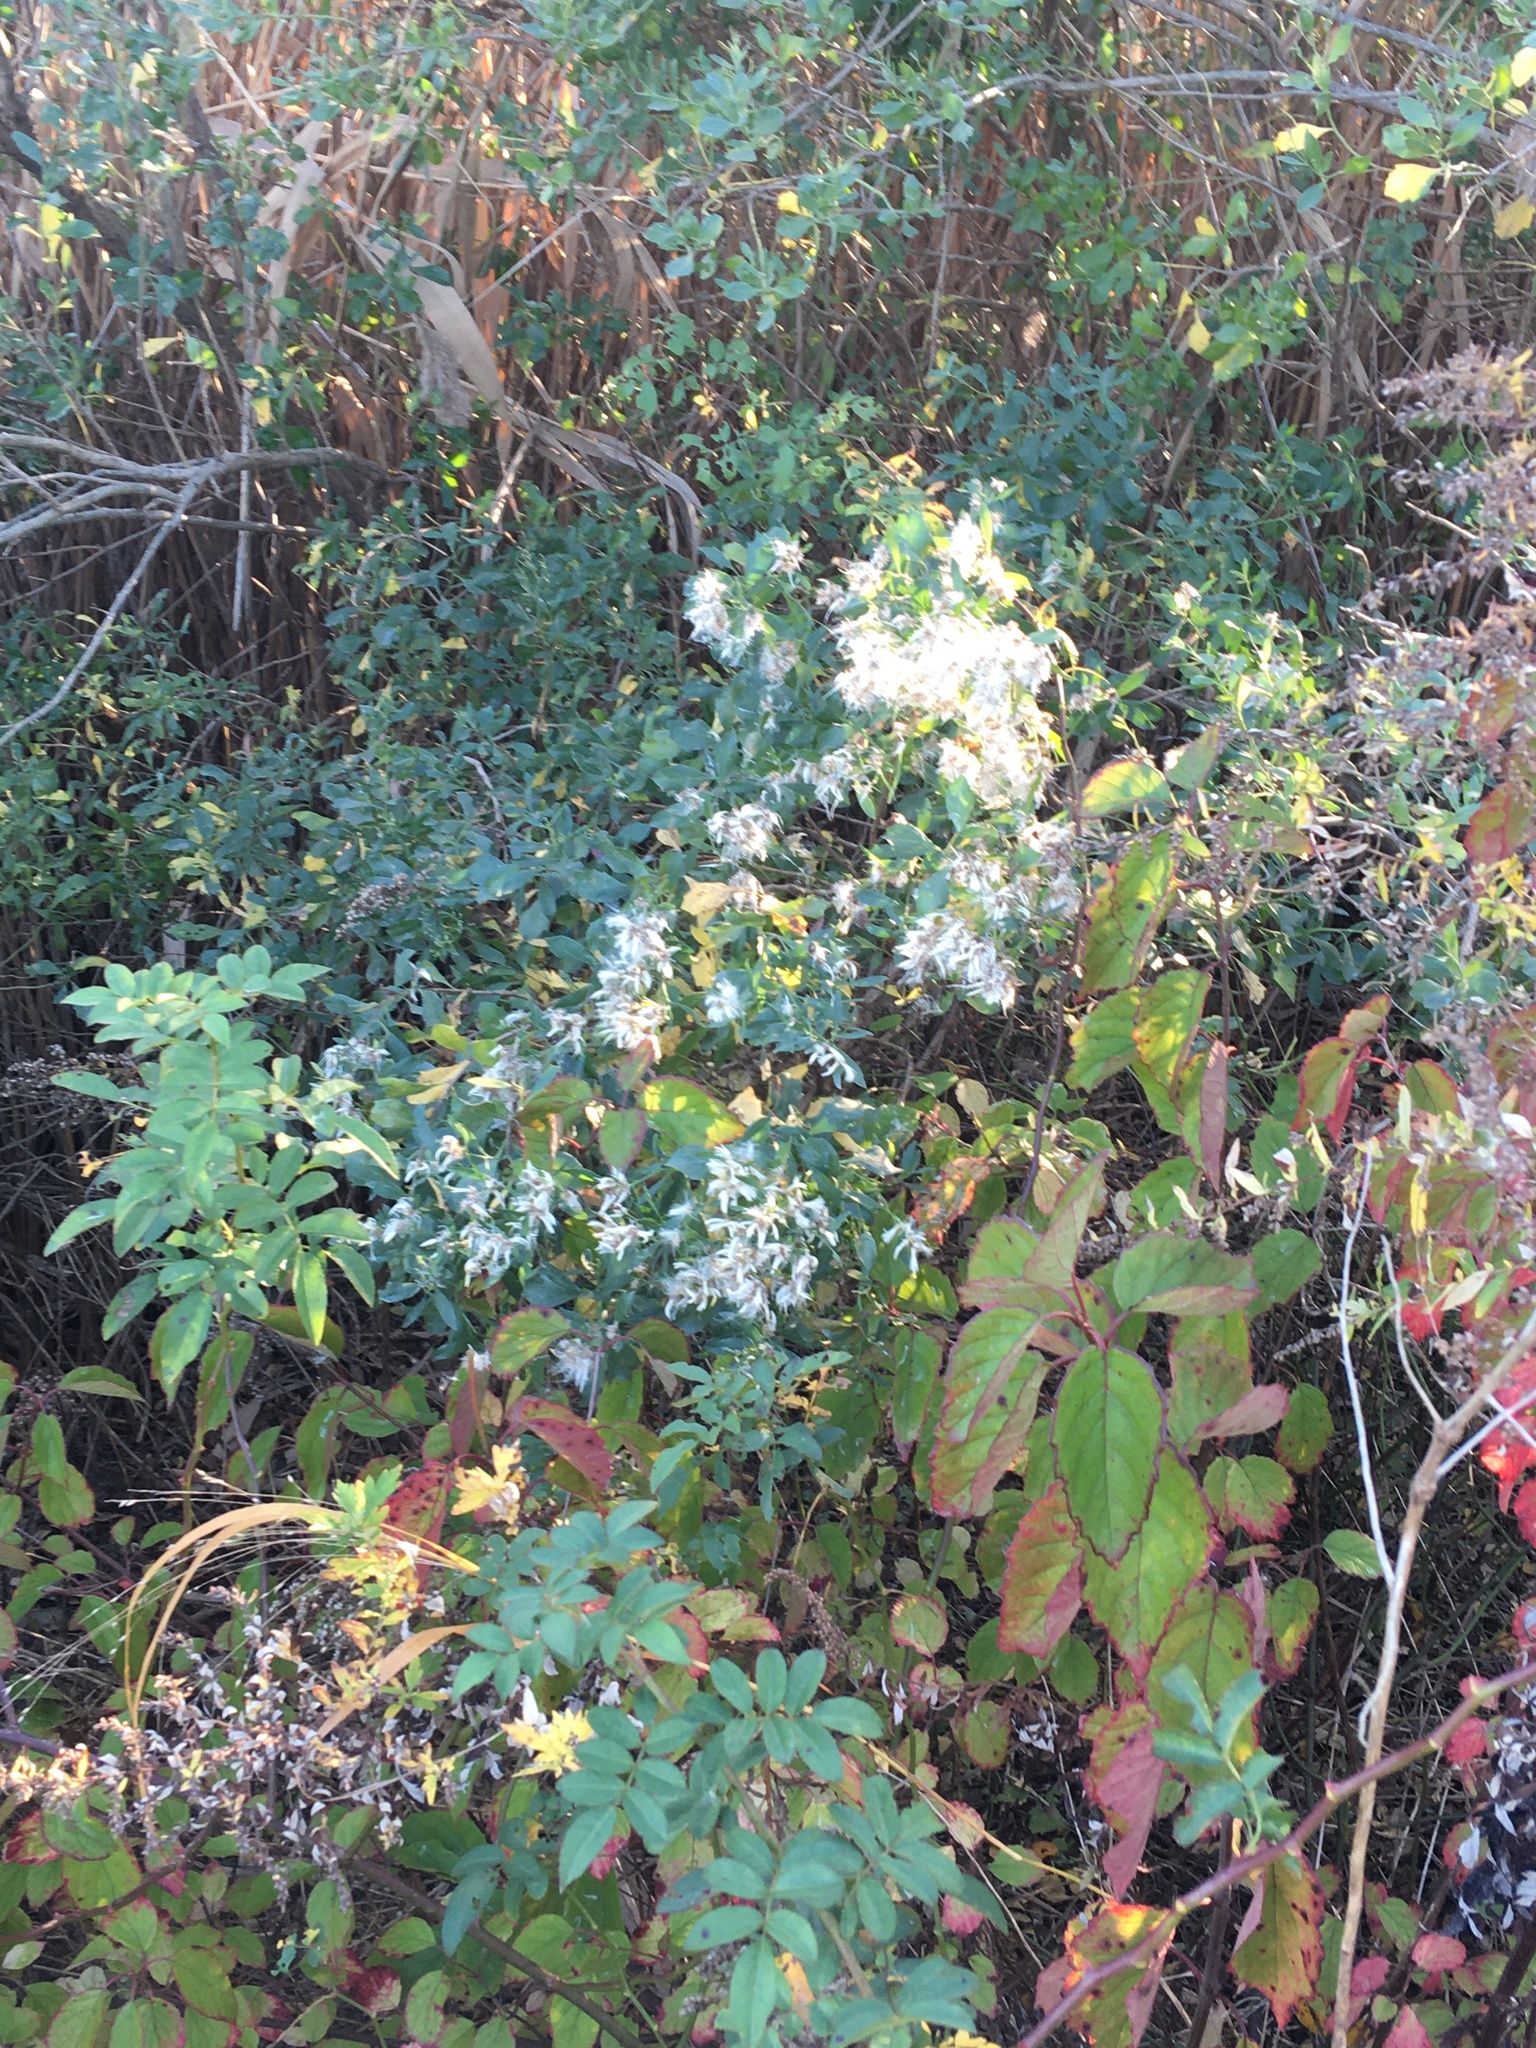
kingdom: Plantae
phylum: Tracheophyta
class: Magnoliopsida
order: Asterales
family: Asteraceae
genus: Baccharis
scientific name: Baccharis halimifolia
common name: Eastern baccharis
